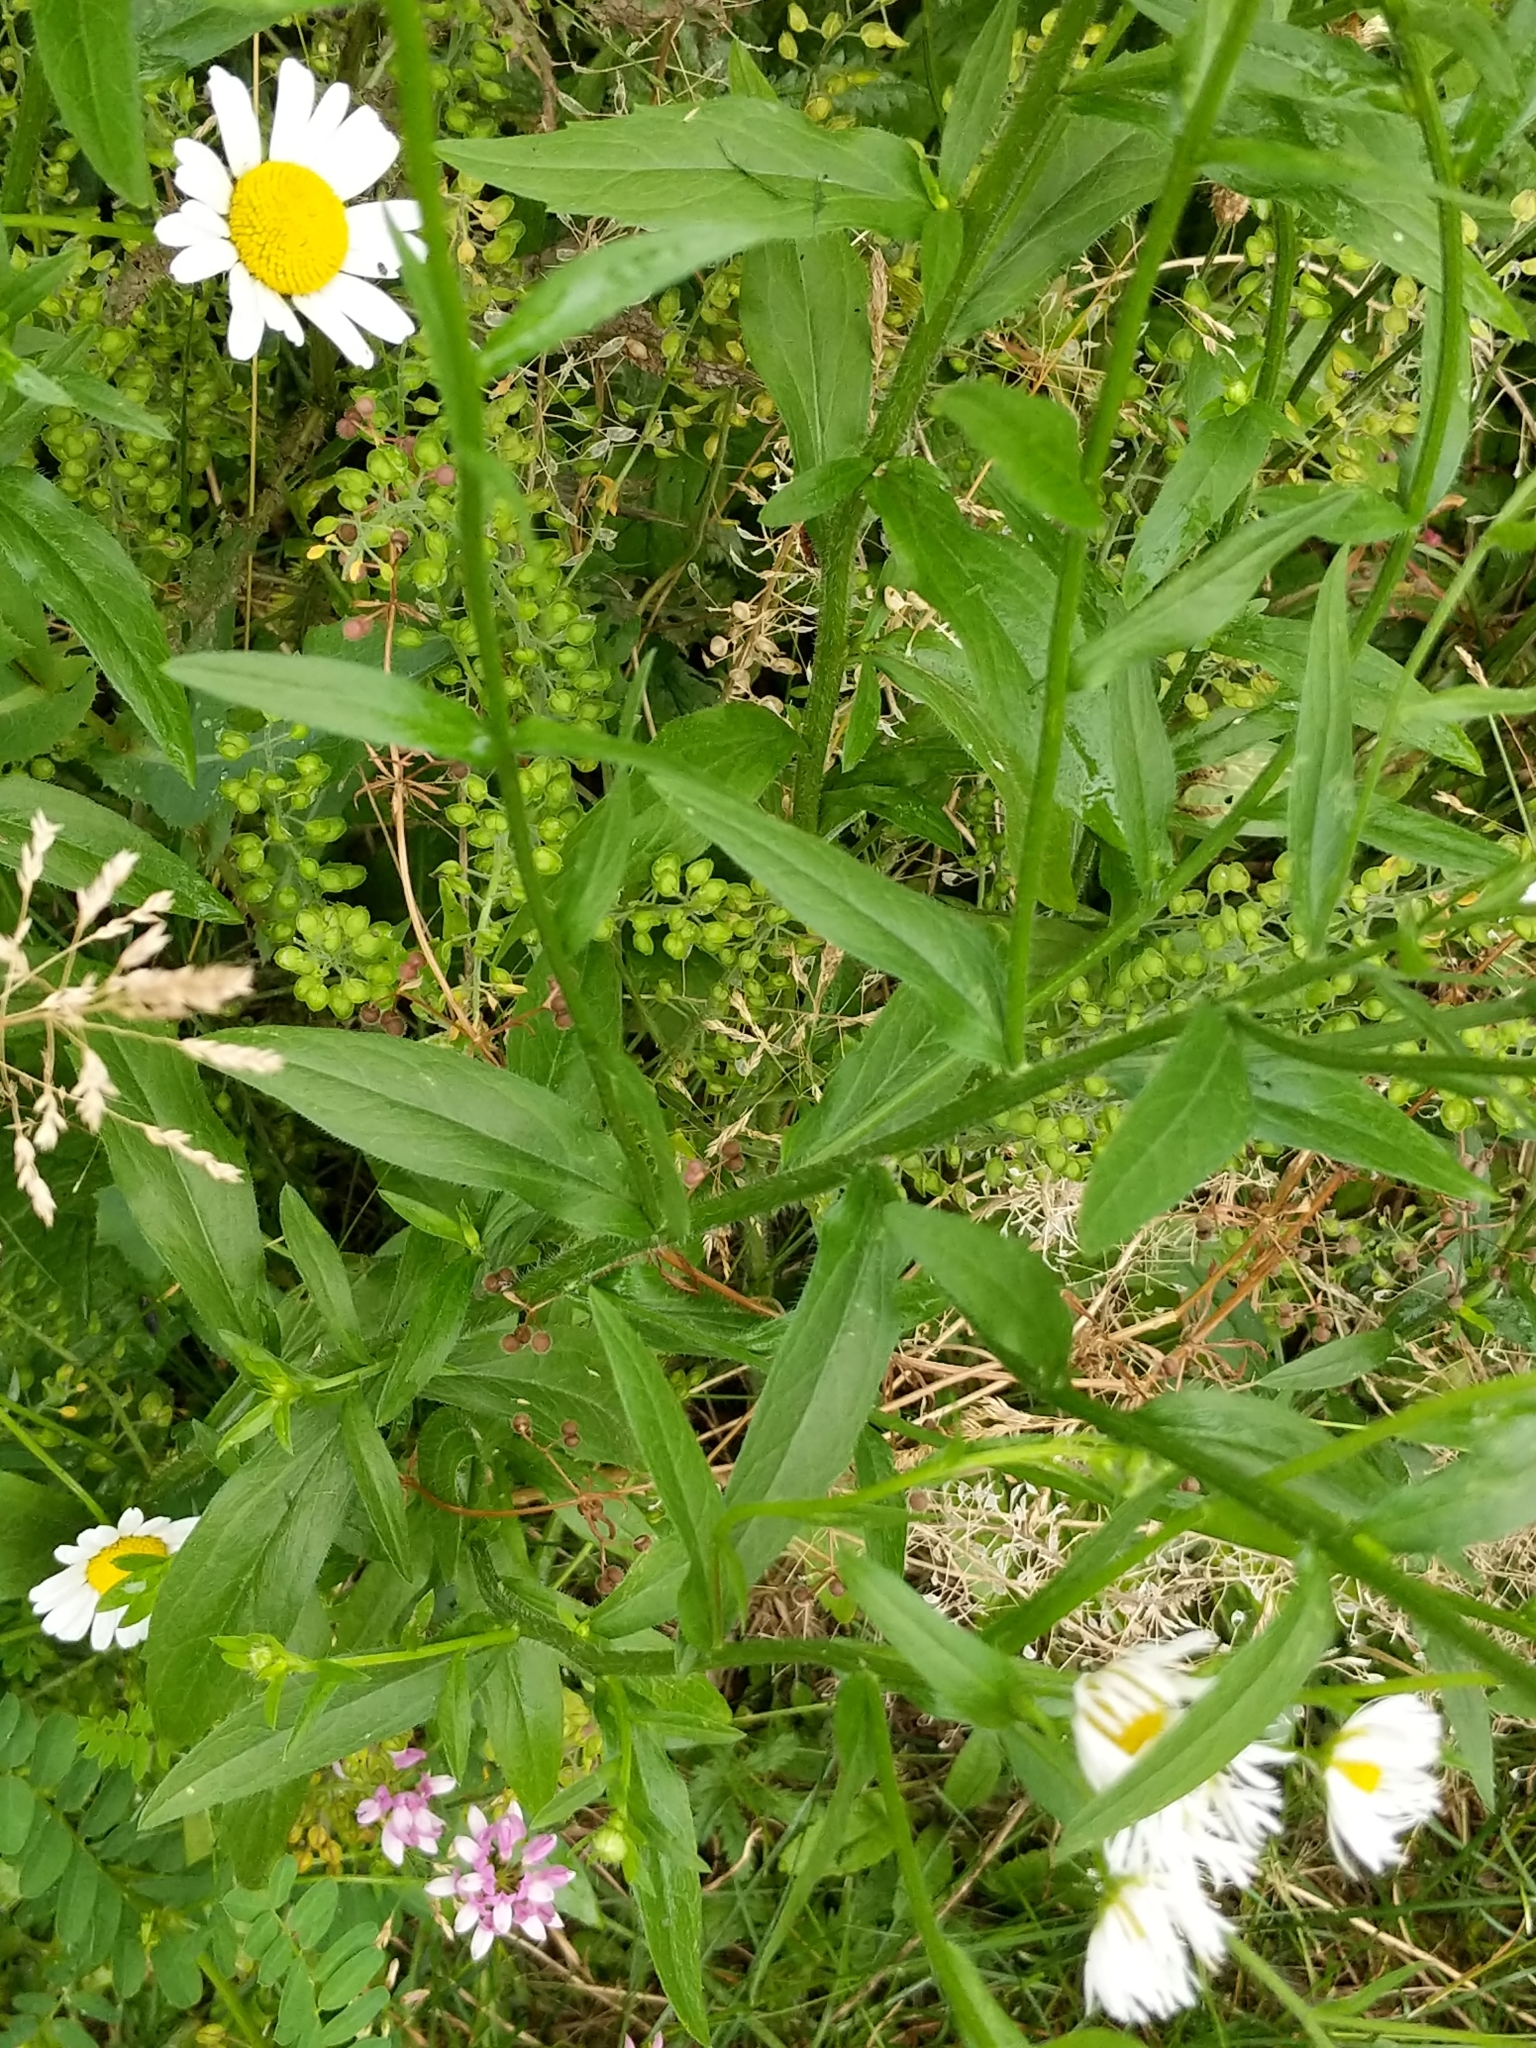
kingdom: Plantae
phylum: Tracheophyta
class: Magnoliopsida
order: Asterales
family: Asteraceae
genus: Erigeron
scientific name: Erigeron annuus
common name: Tall fleabane
